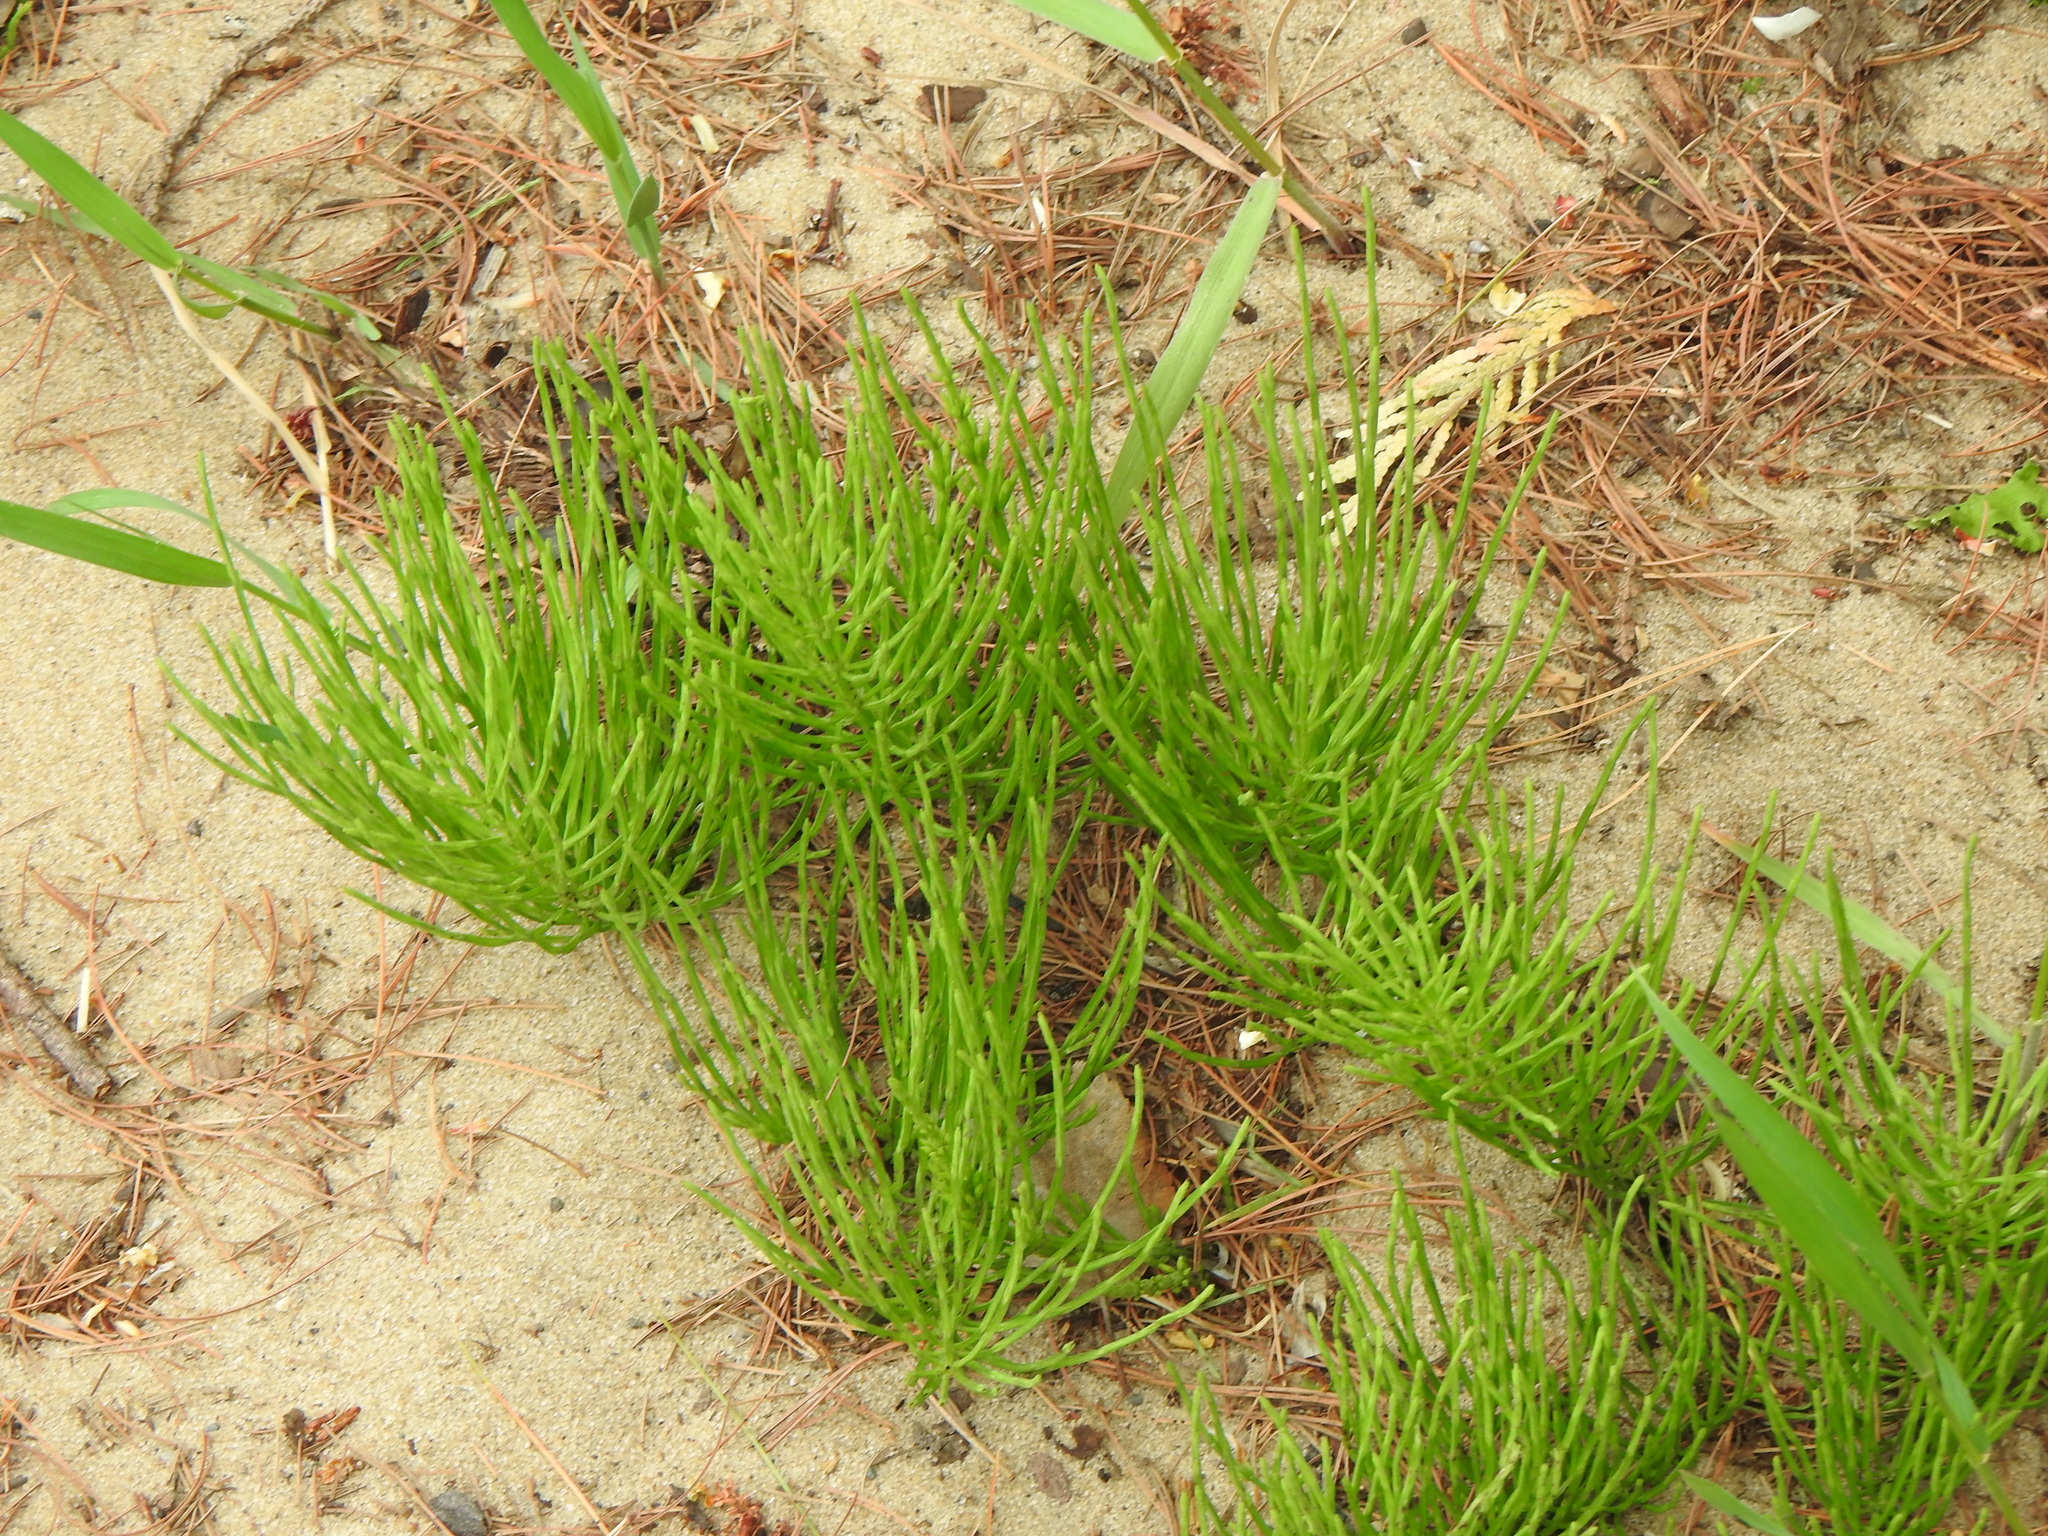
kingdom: Plantae
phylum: Tracheophyta
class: Polypodiopsida
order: Equisetales
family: Equisetaceae
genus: Equisetum
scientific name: Equisetum arvense
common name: Field horsetail
